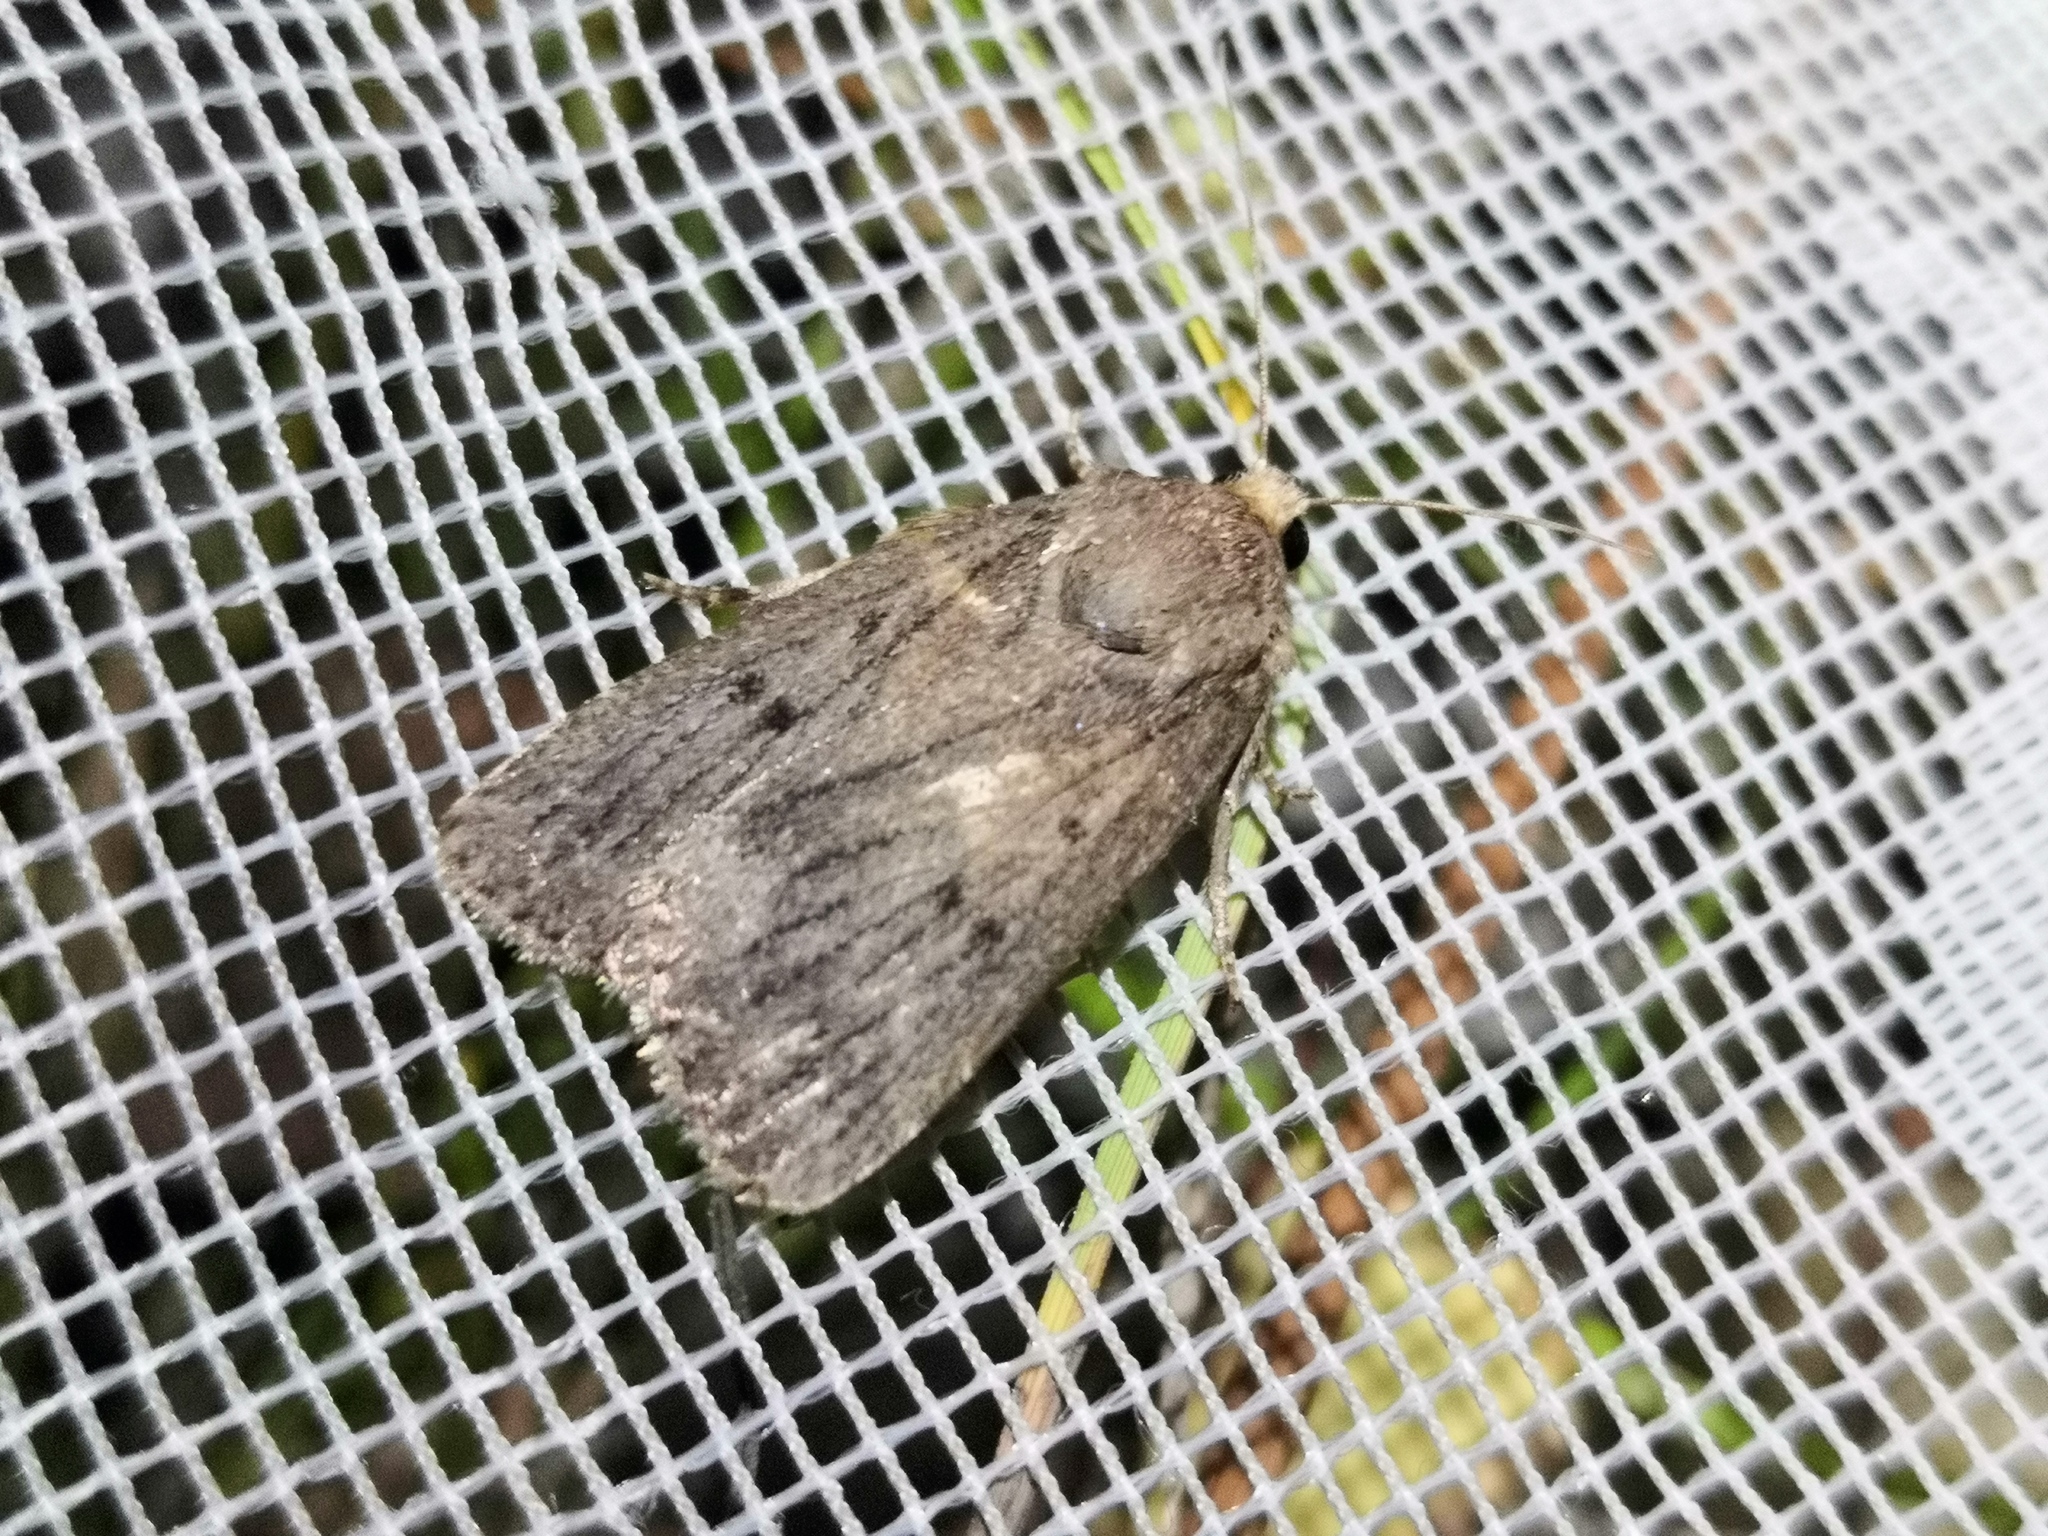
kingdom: Animalia
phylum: Arthropoda
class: Insecta
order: Lepidoptera
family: Noctuidae
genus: Amphipyra
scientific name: Amphipyra tragopoginis
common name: Mouse moth
